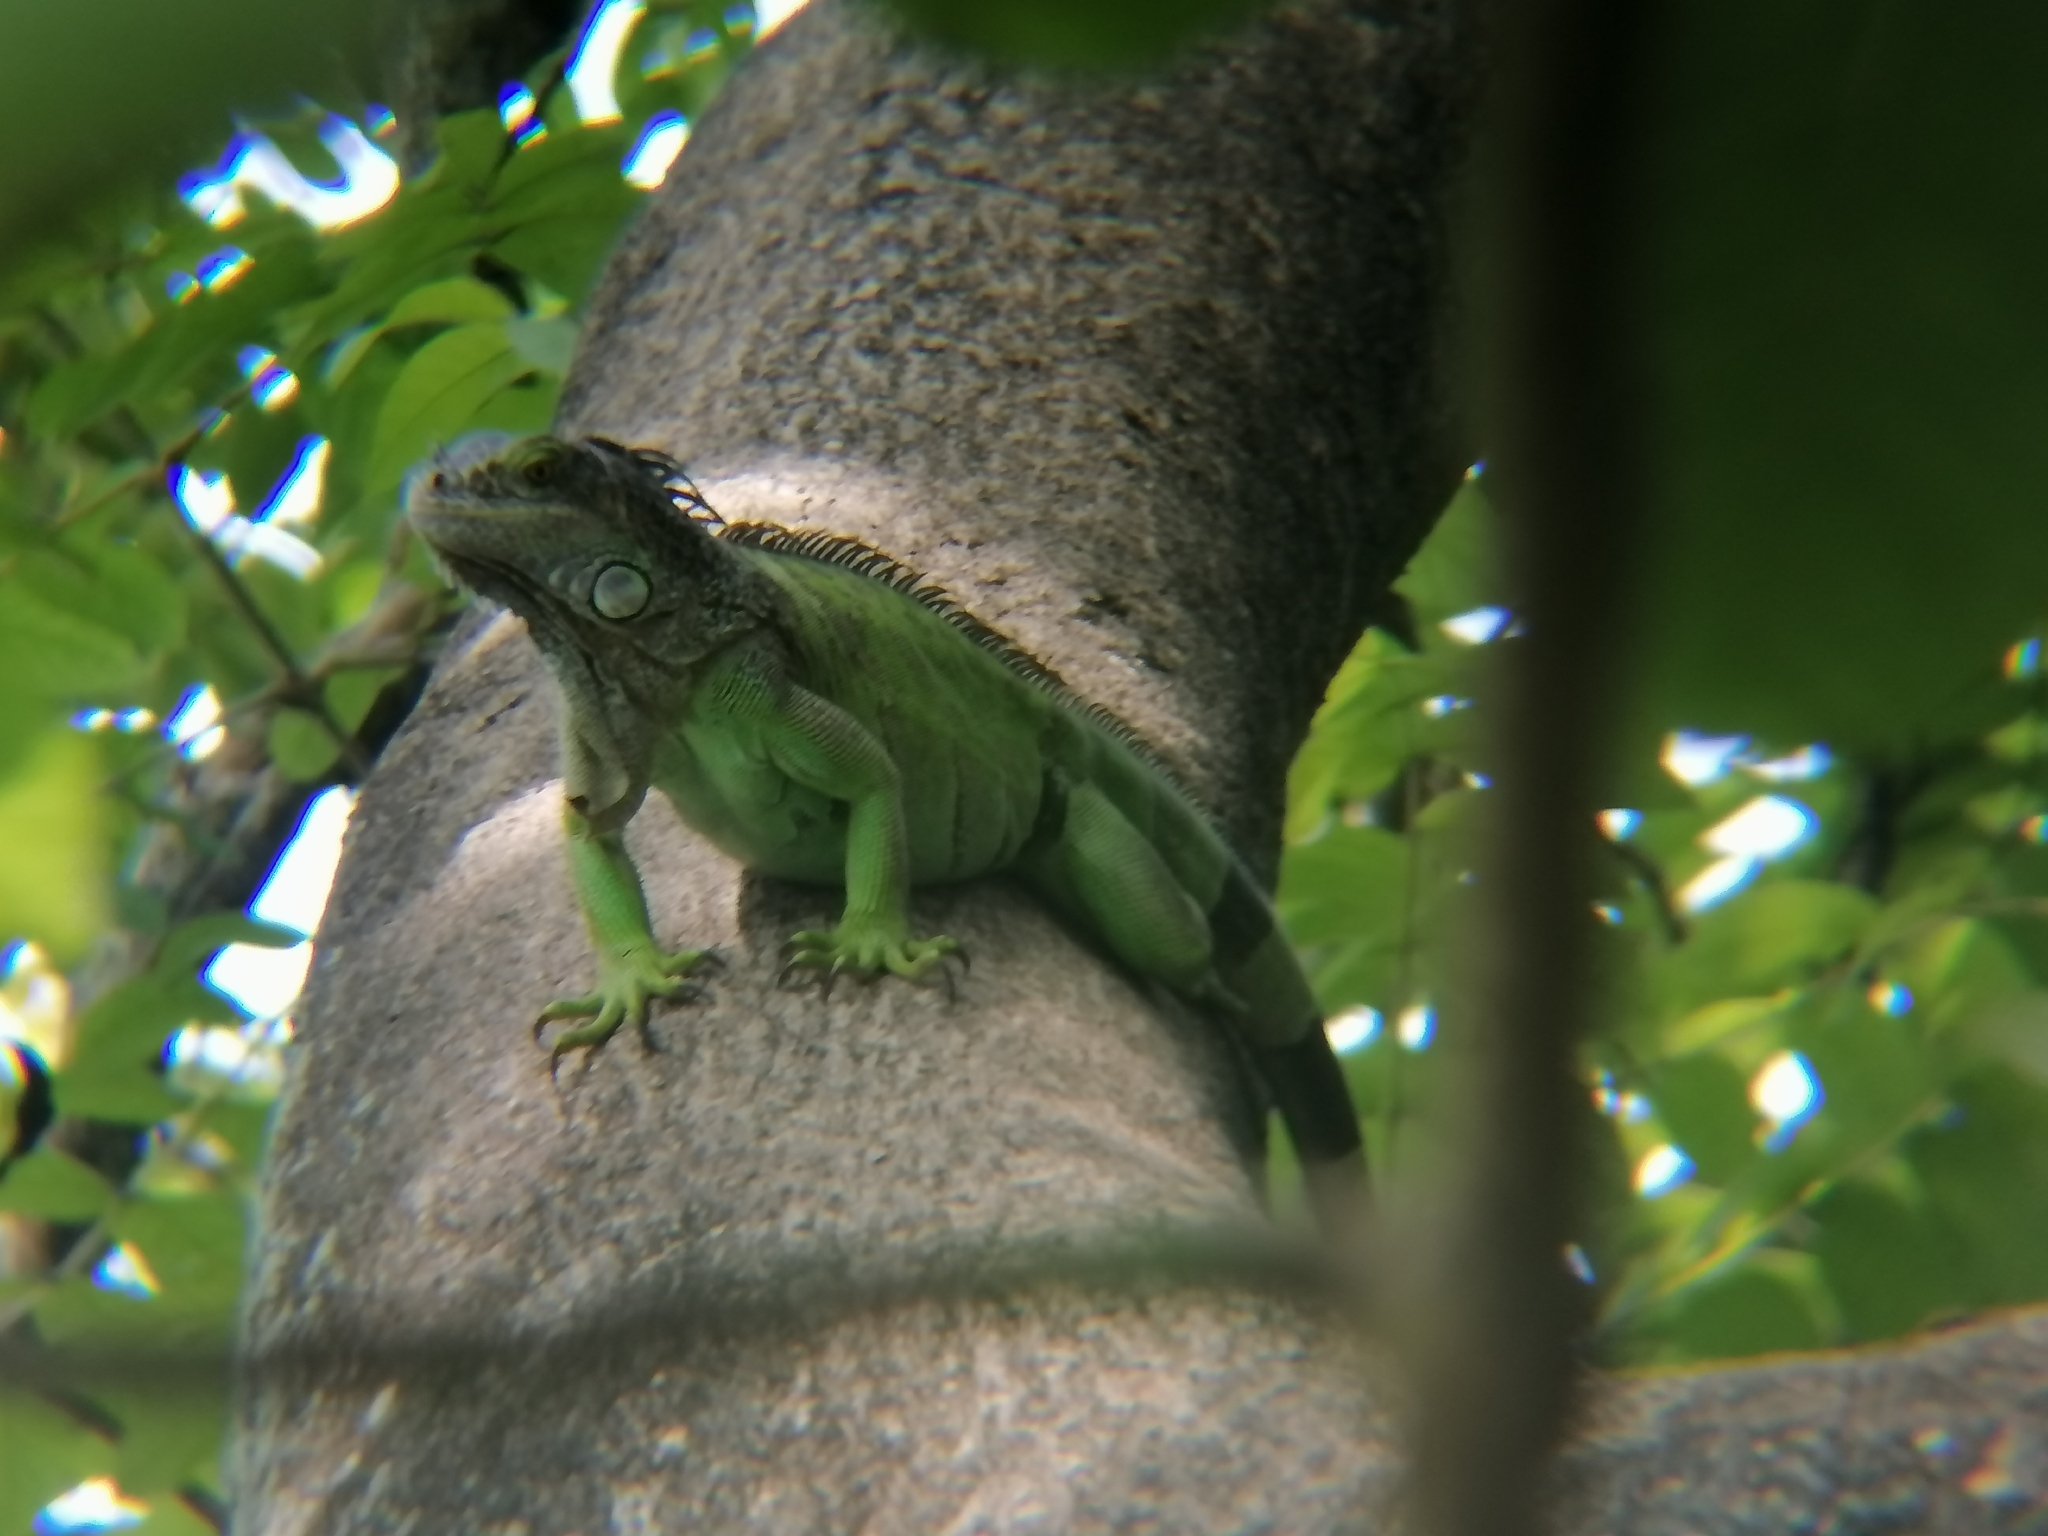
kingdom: Animalia
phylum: Chordata
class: Squamata
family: Iguanidae
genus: Iguana
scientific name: Iguana iguana
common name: Green iguana
